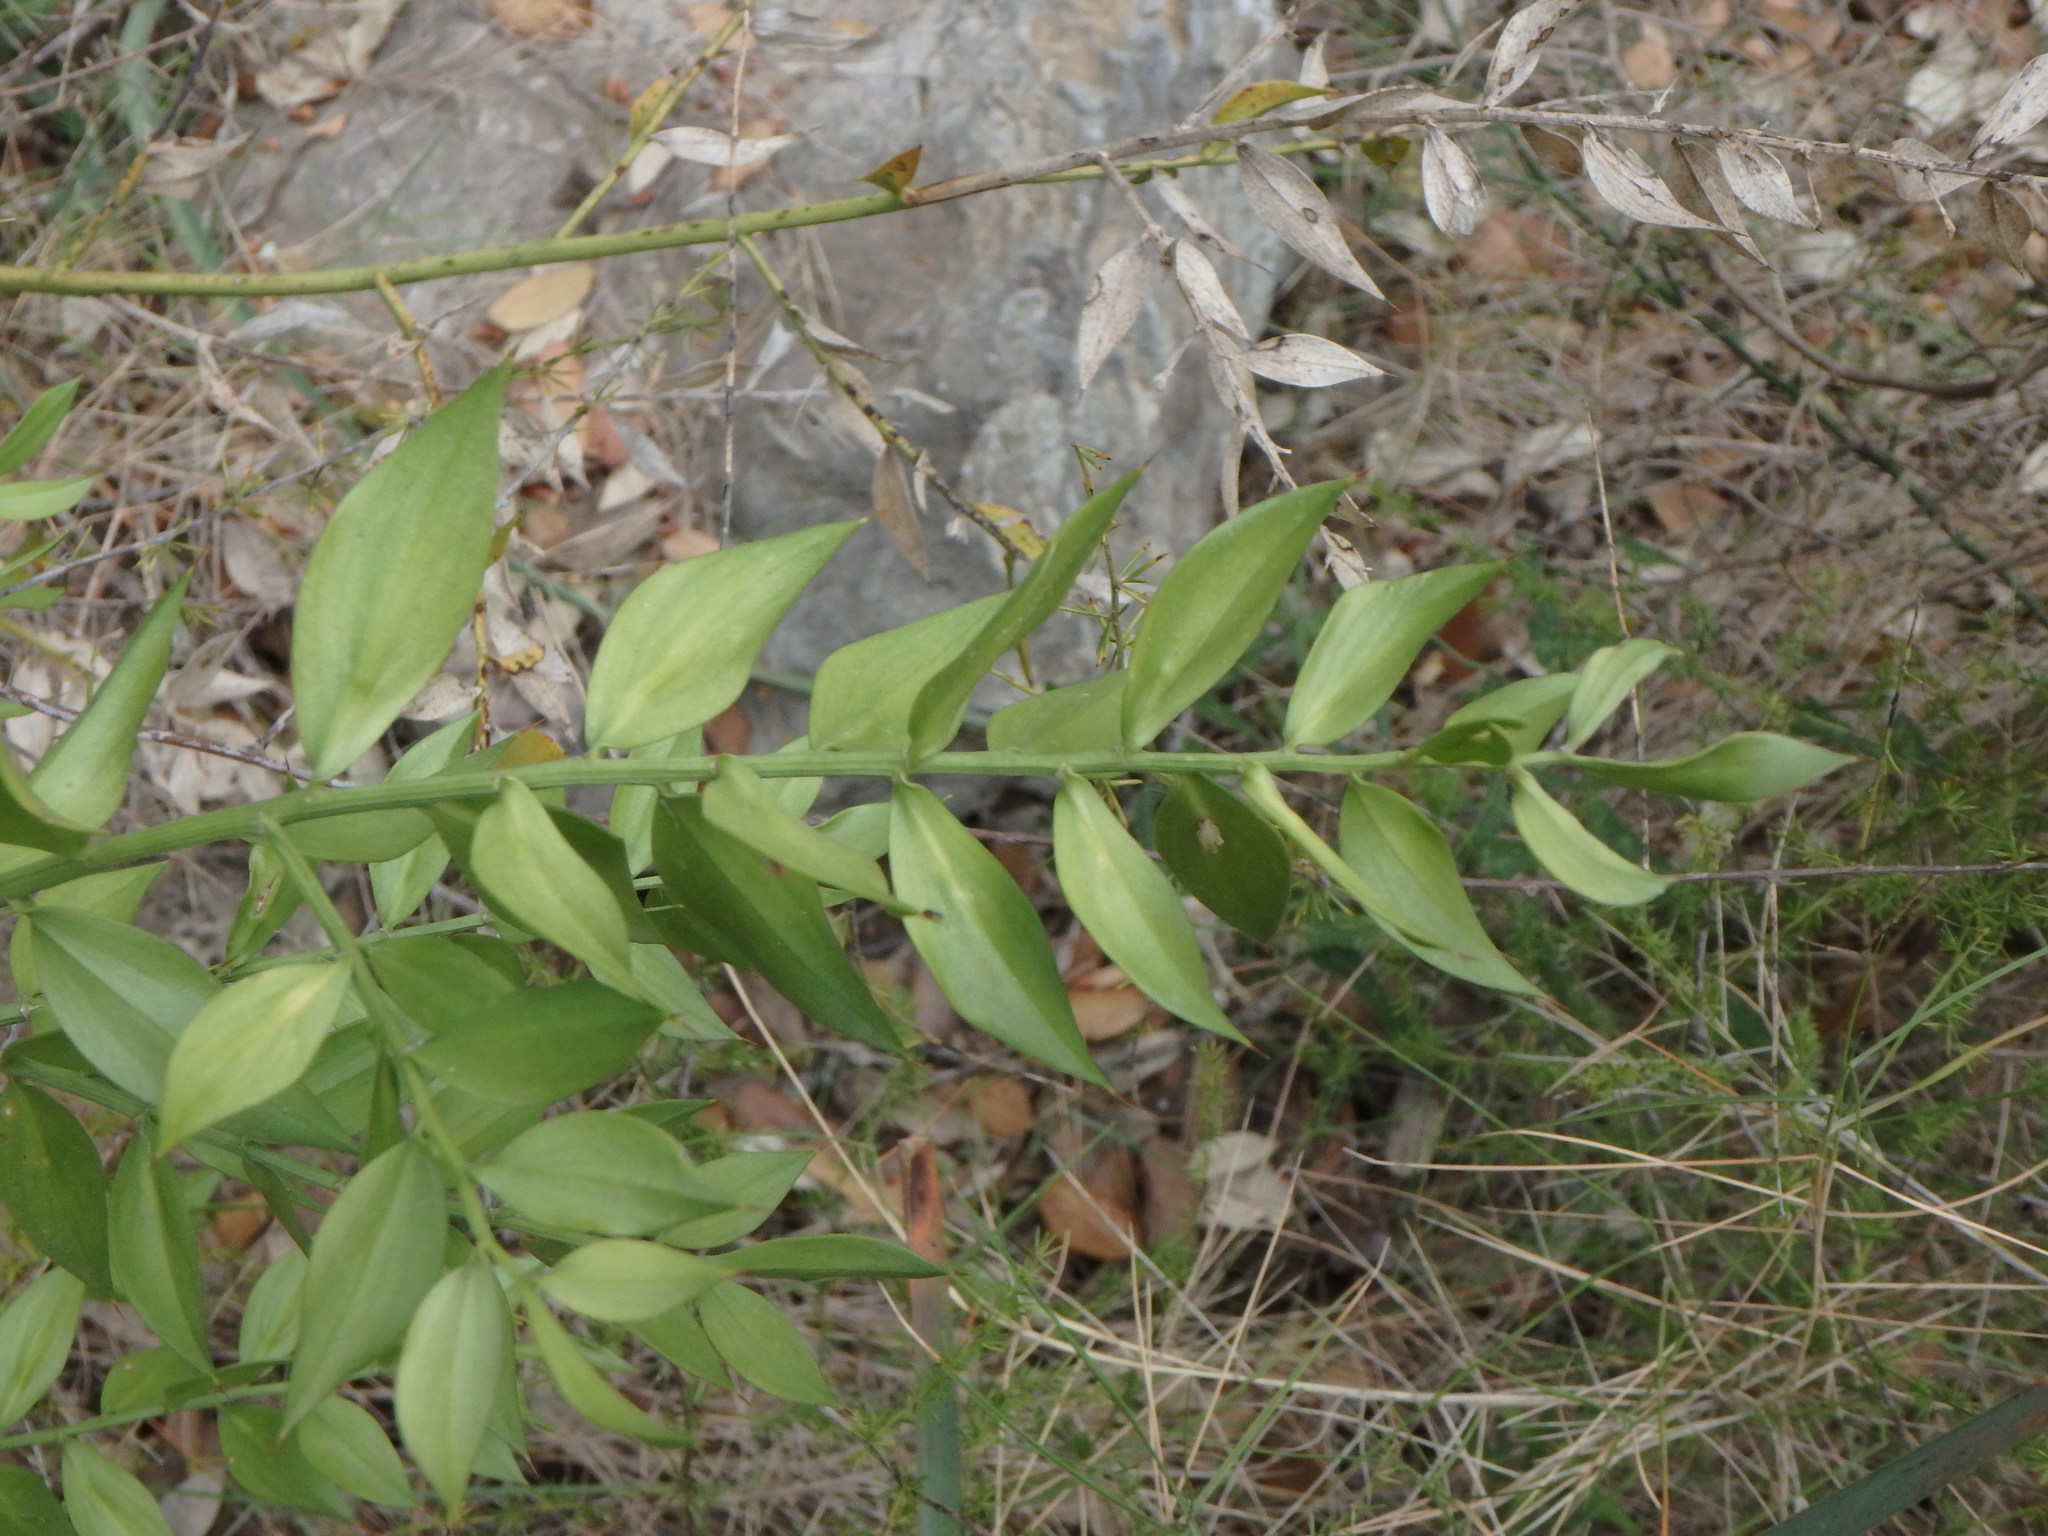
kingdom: Plantae
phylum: Tracheophyta
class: Liliopsida
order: Asparagales
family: Asparagaceae
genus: Ruscus
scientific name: Ruscus aculeatus
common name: Butcher's-broom
